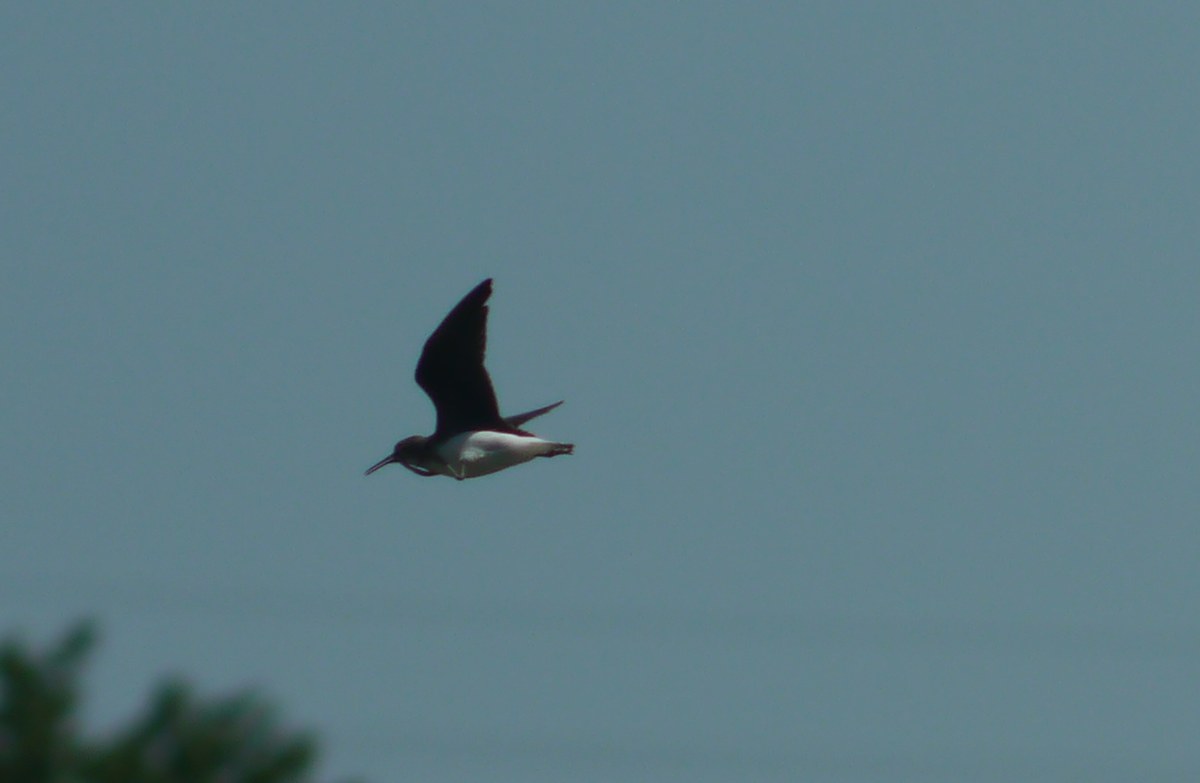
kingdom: Animalia
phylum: Chordata
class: Aves
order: Charadriiformes
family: Scolopacidae
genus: Tringa
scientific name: Tringa ochropus
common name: Green sandpiper
